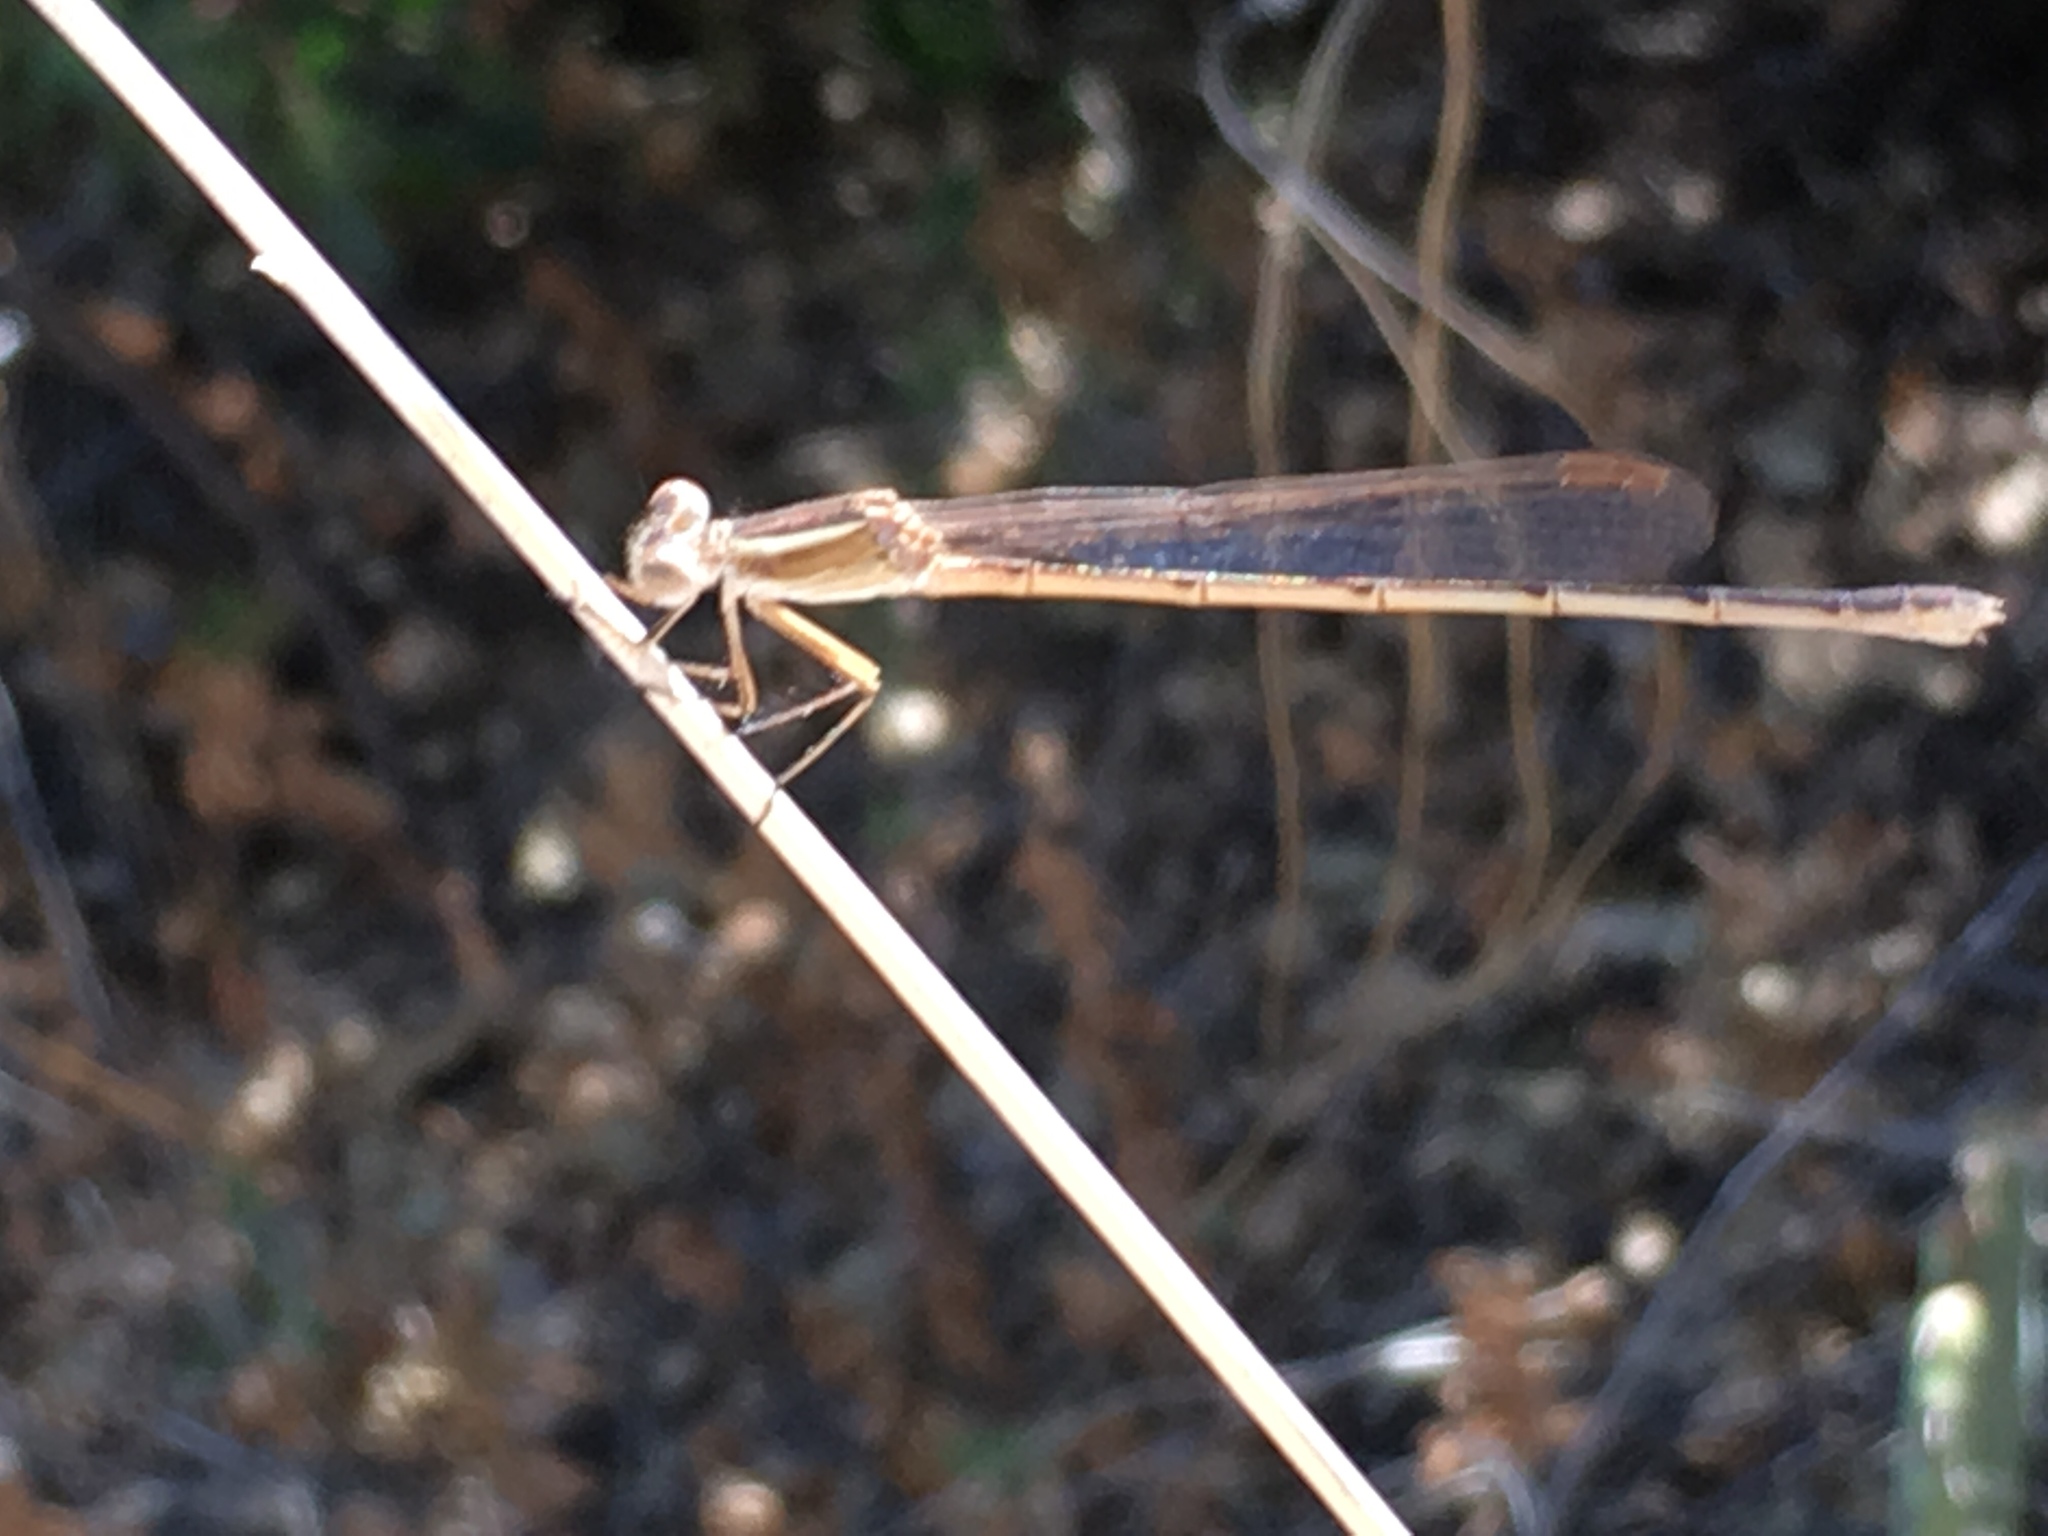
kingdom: Animalia
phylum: Arthropoda
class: Insecta
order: Odonata
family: Lestidae
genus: Lestes
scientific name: Lestes alacer
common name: Plateau spreadwing
